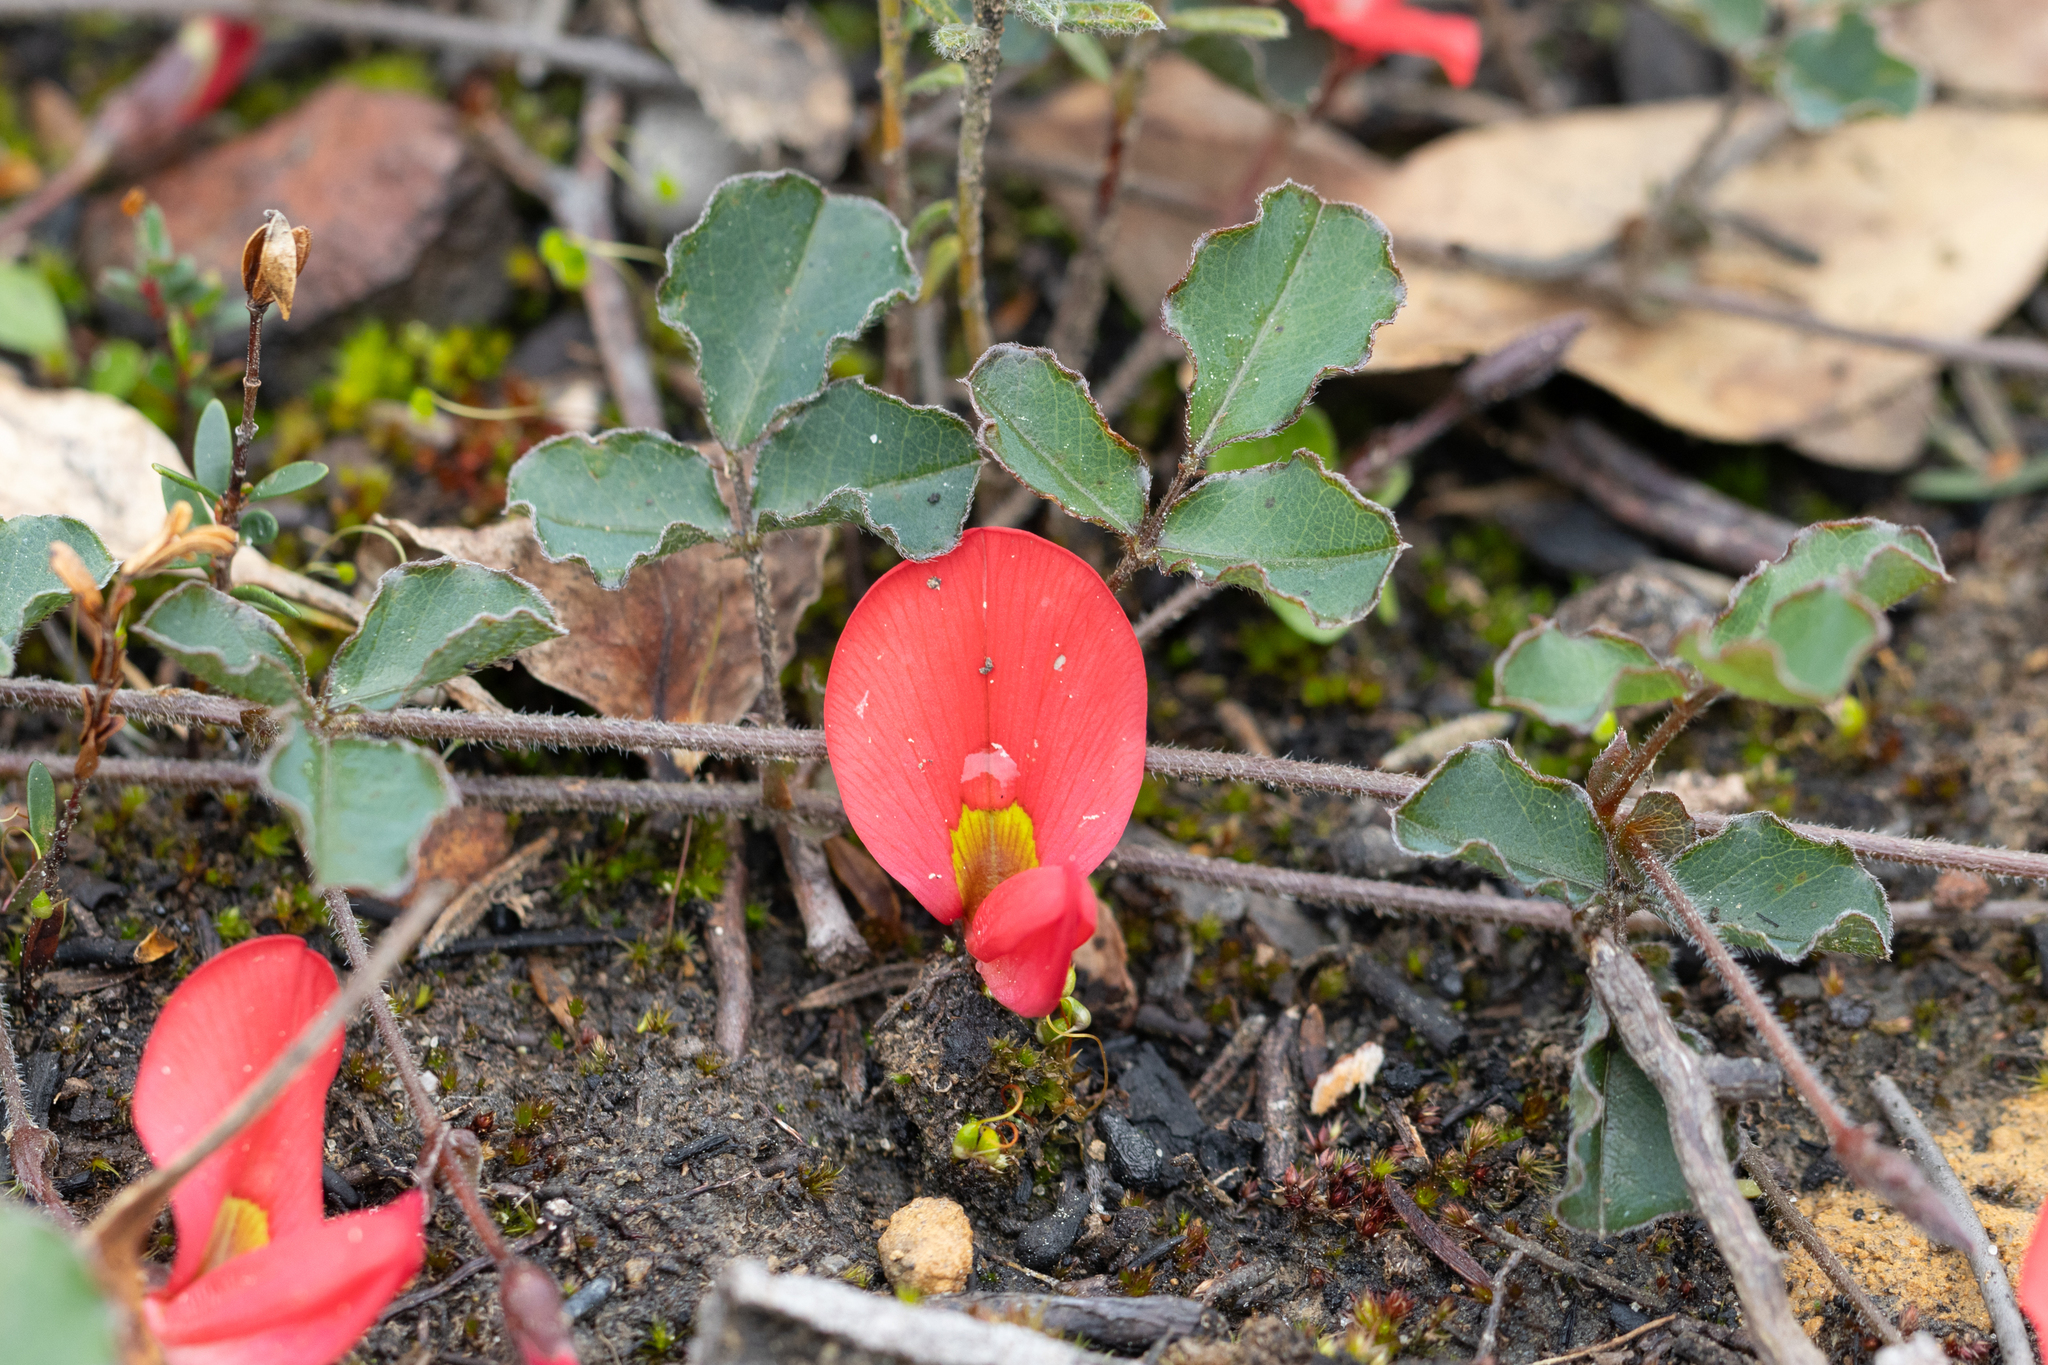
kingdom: Plantae
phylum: Tracheophyta
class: Magnoliopsida
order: Fabales
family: Fabaceae
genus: Kennedia
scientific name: Kennedia prostrata
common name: Running-postman
